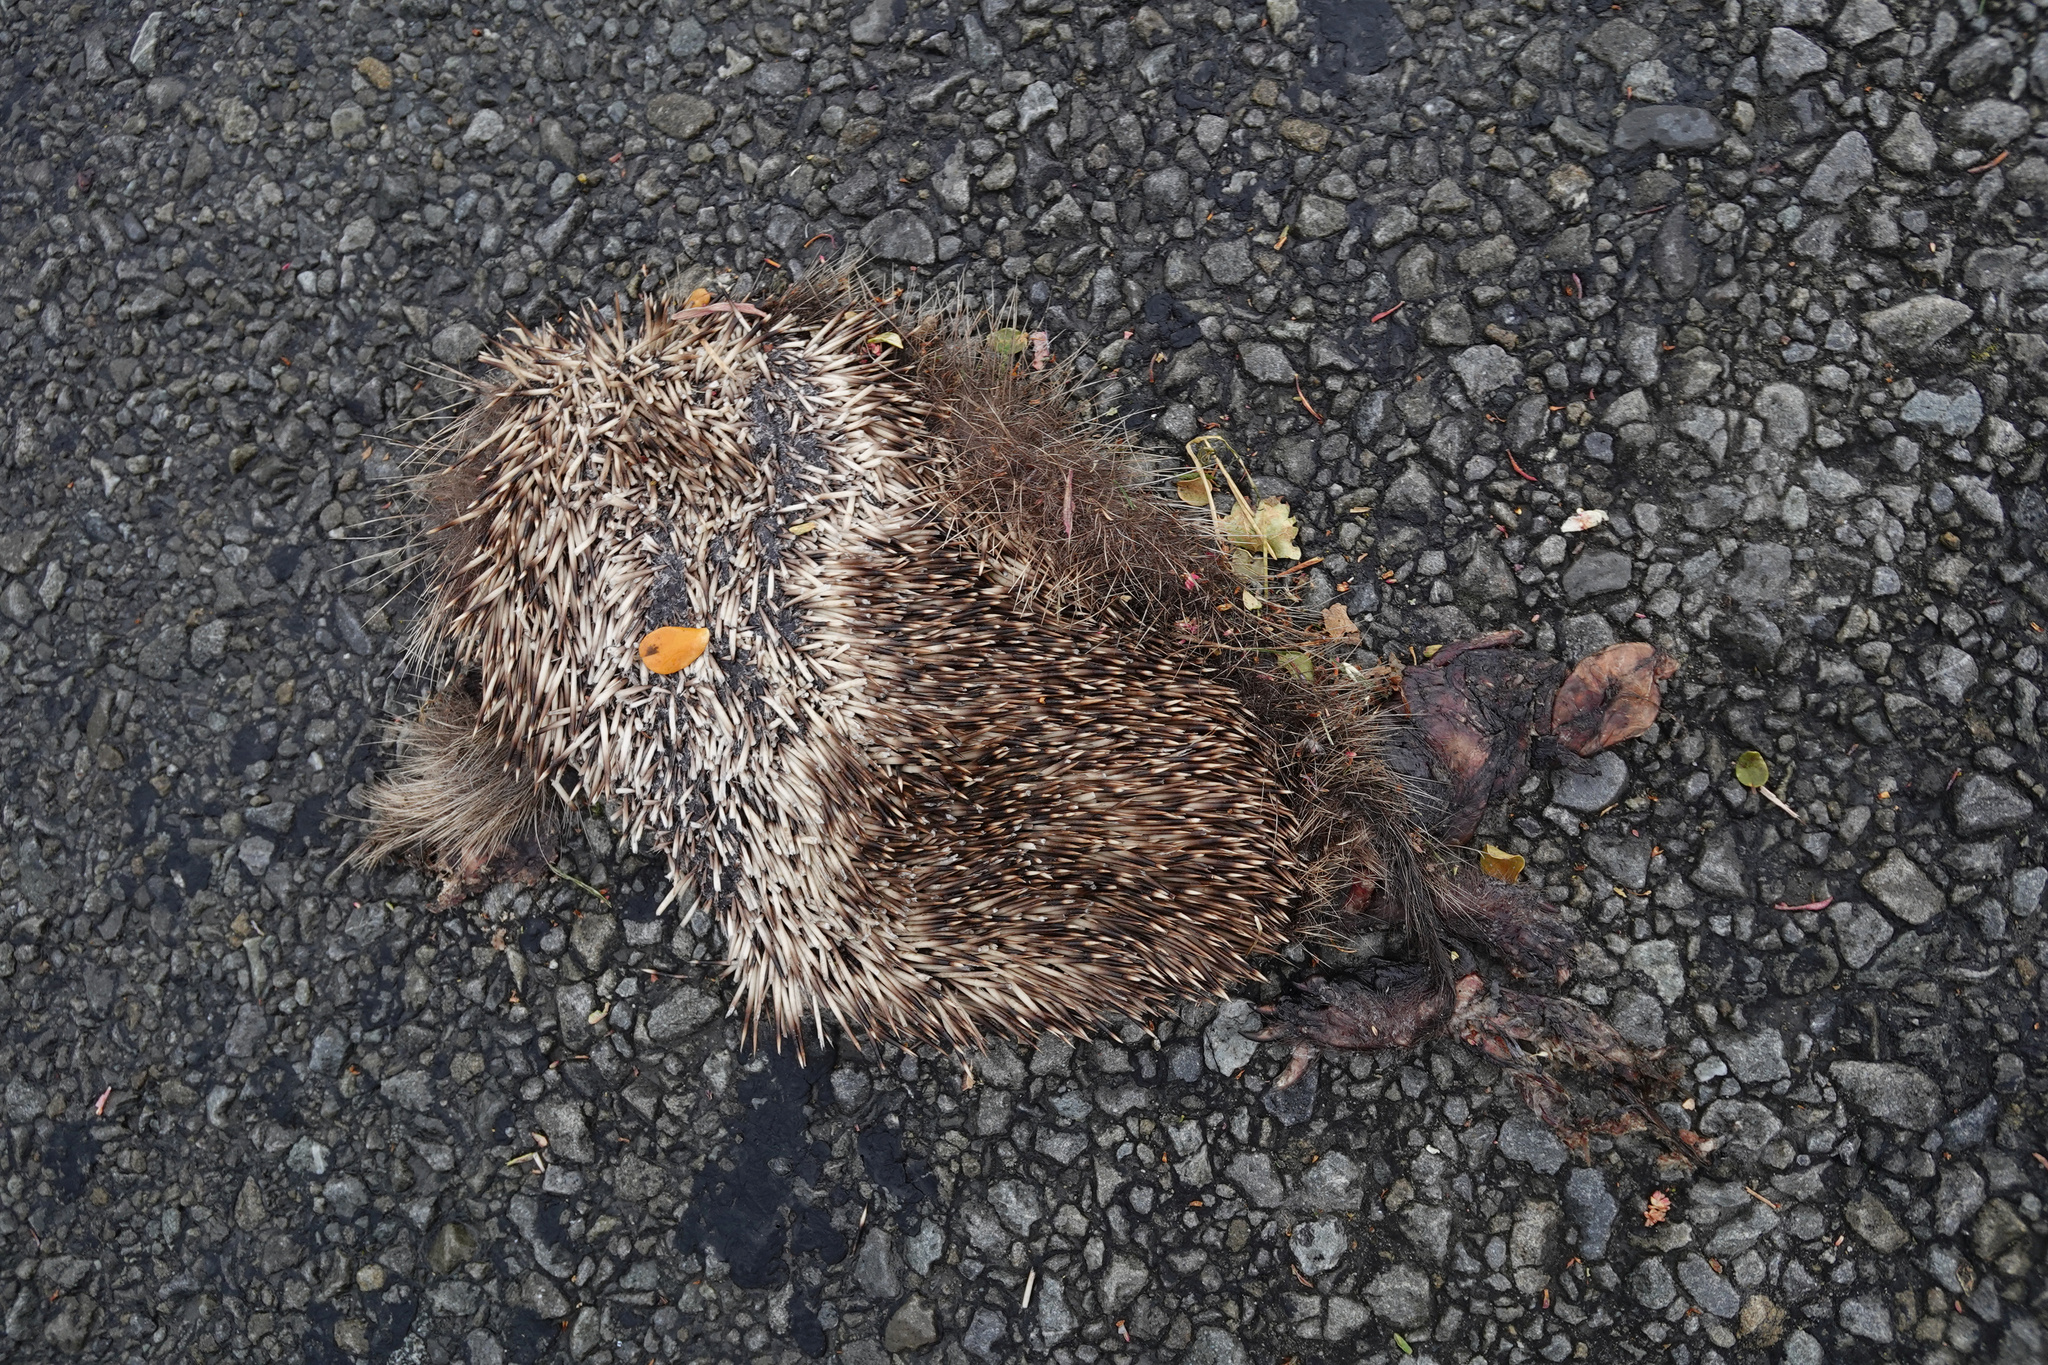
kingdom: Animalia
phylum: Chordata
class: Mammalia
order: Erinaceomorpha
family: Erinaceidae
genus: Erinaceus
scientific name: Erinaceus europaeus
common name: West european hedgehog
